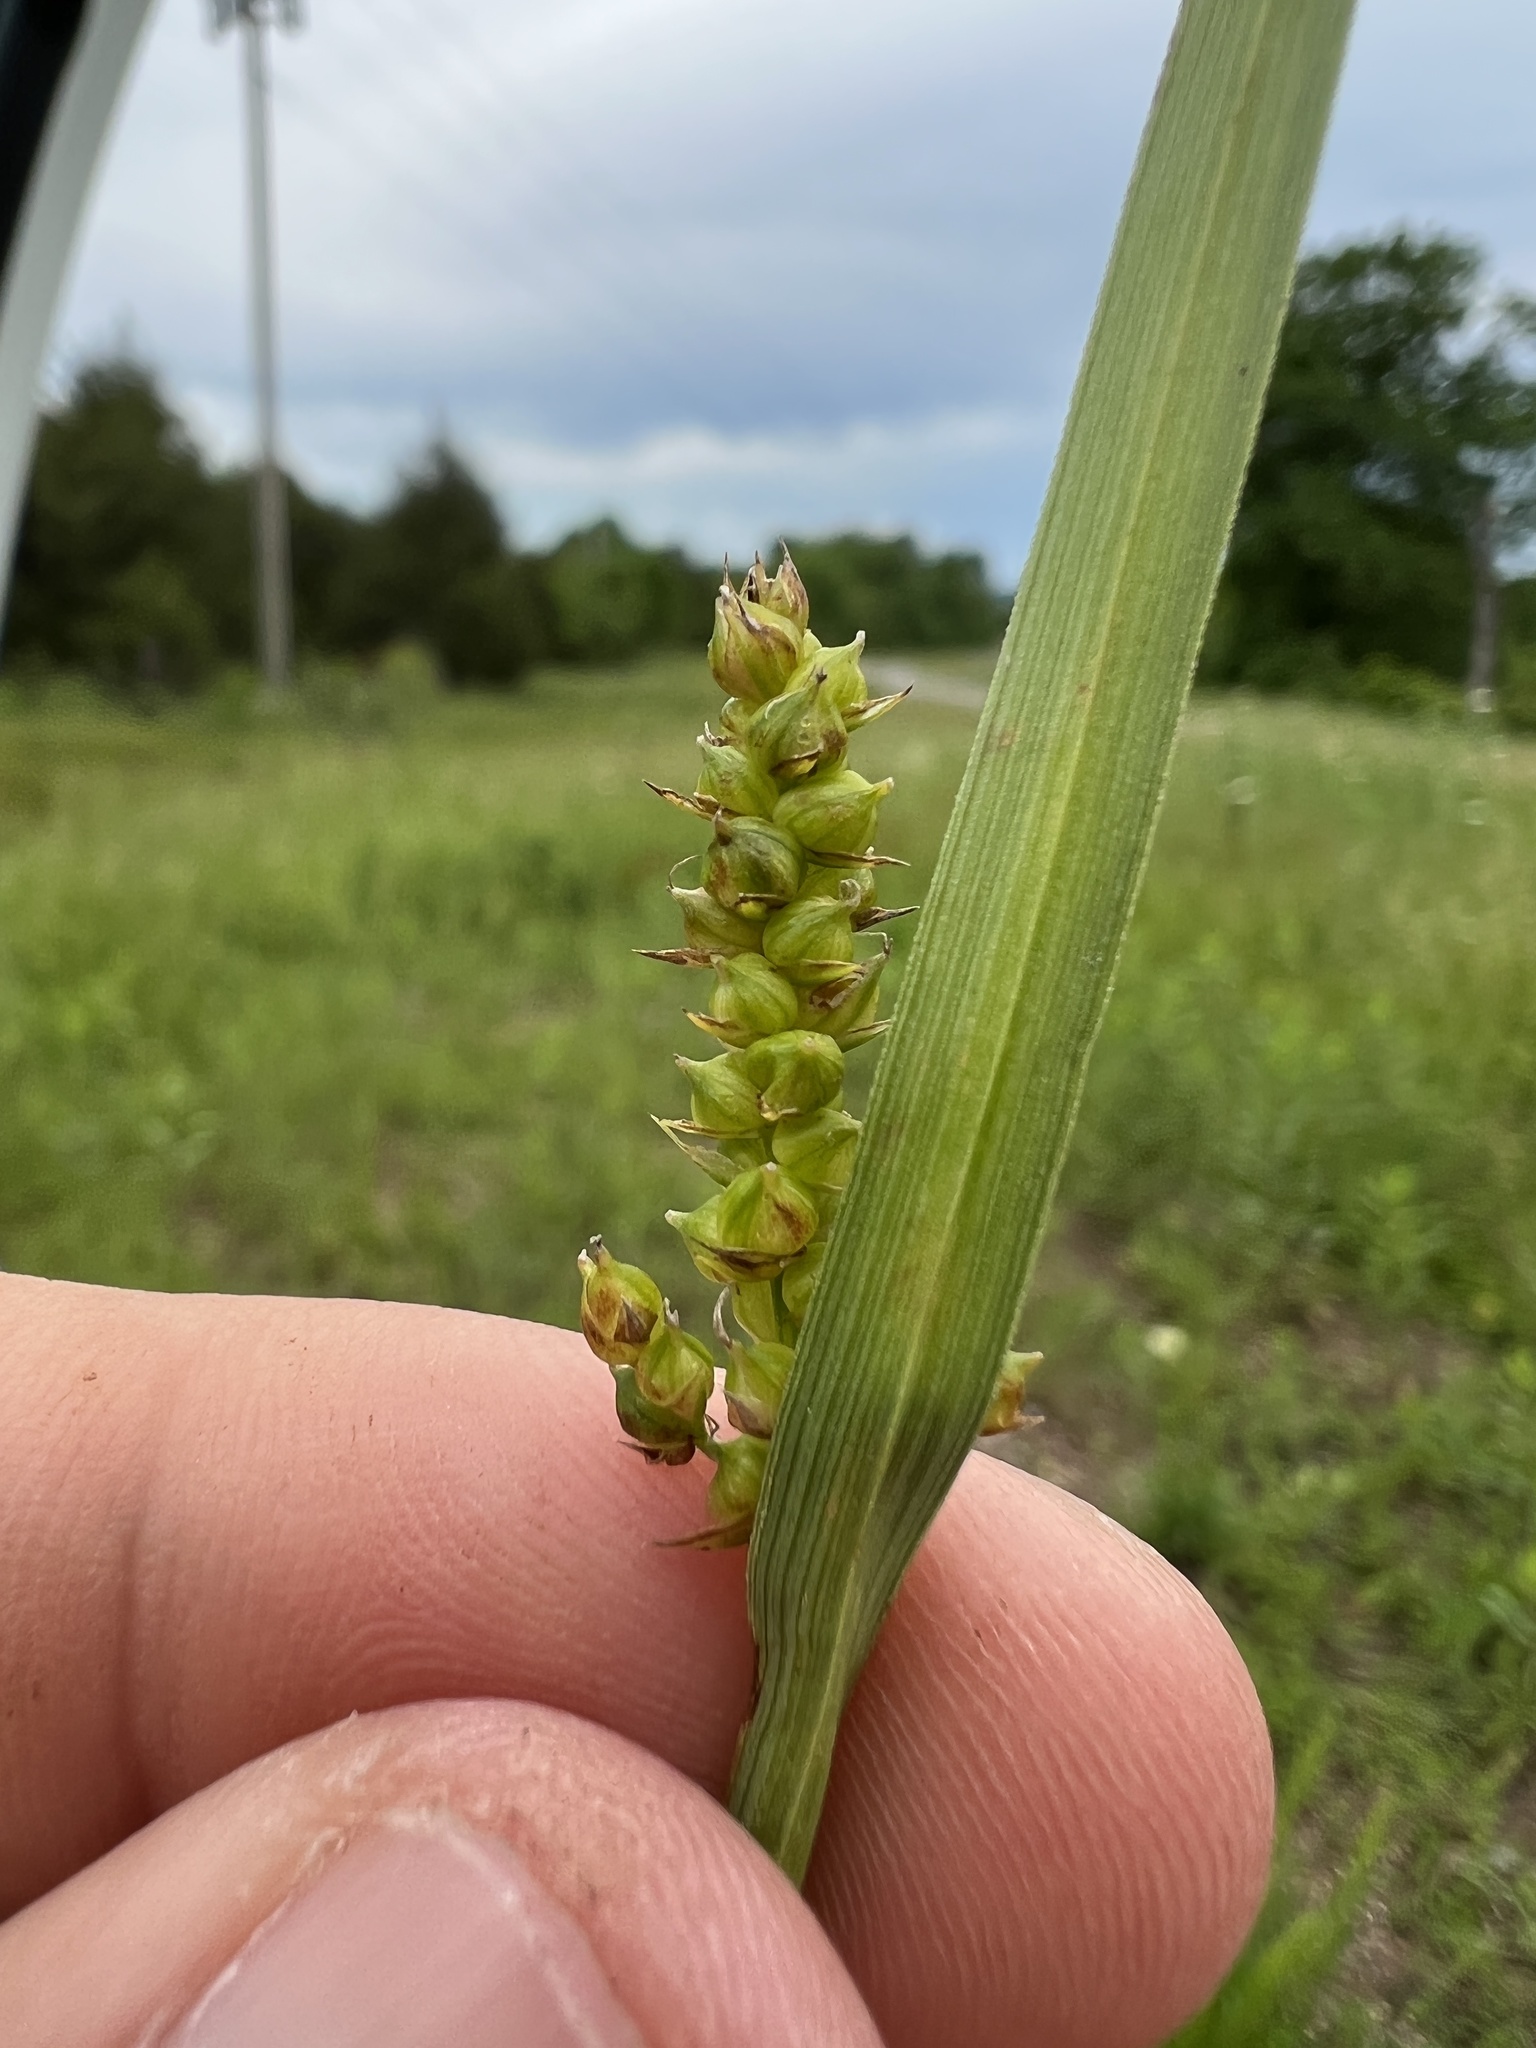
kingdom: Plantae
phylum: Tracheophyta
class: Liliopsida
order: Poales
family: Cyperaceae
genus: Carex
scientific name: Carex microdonta
